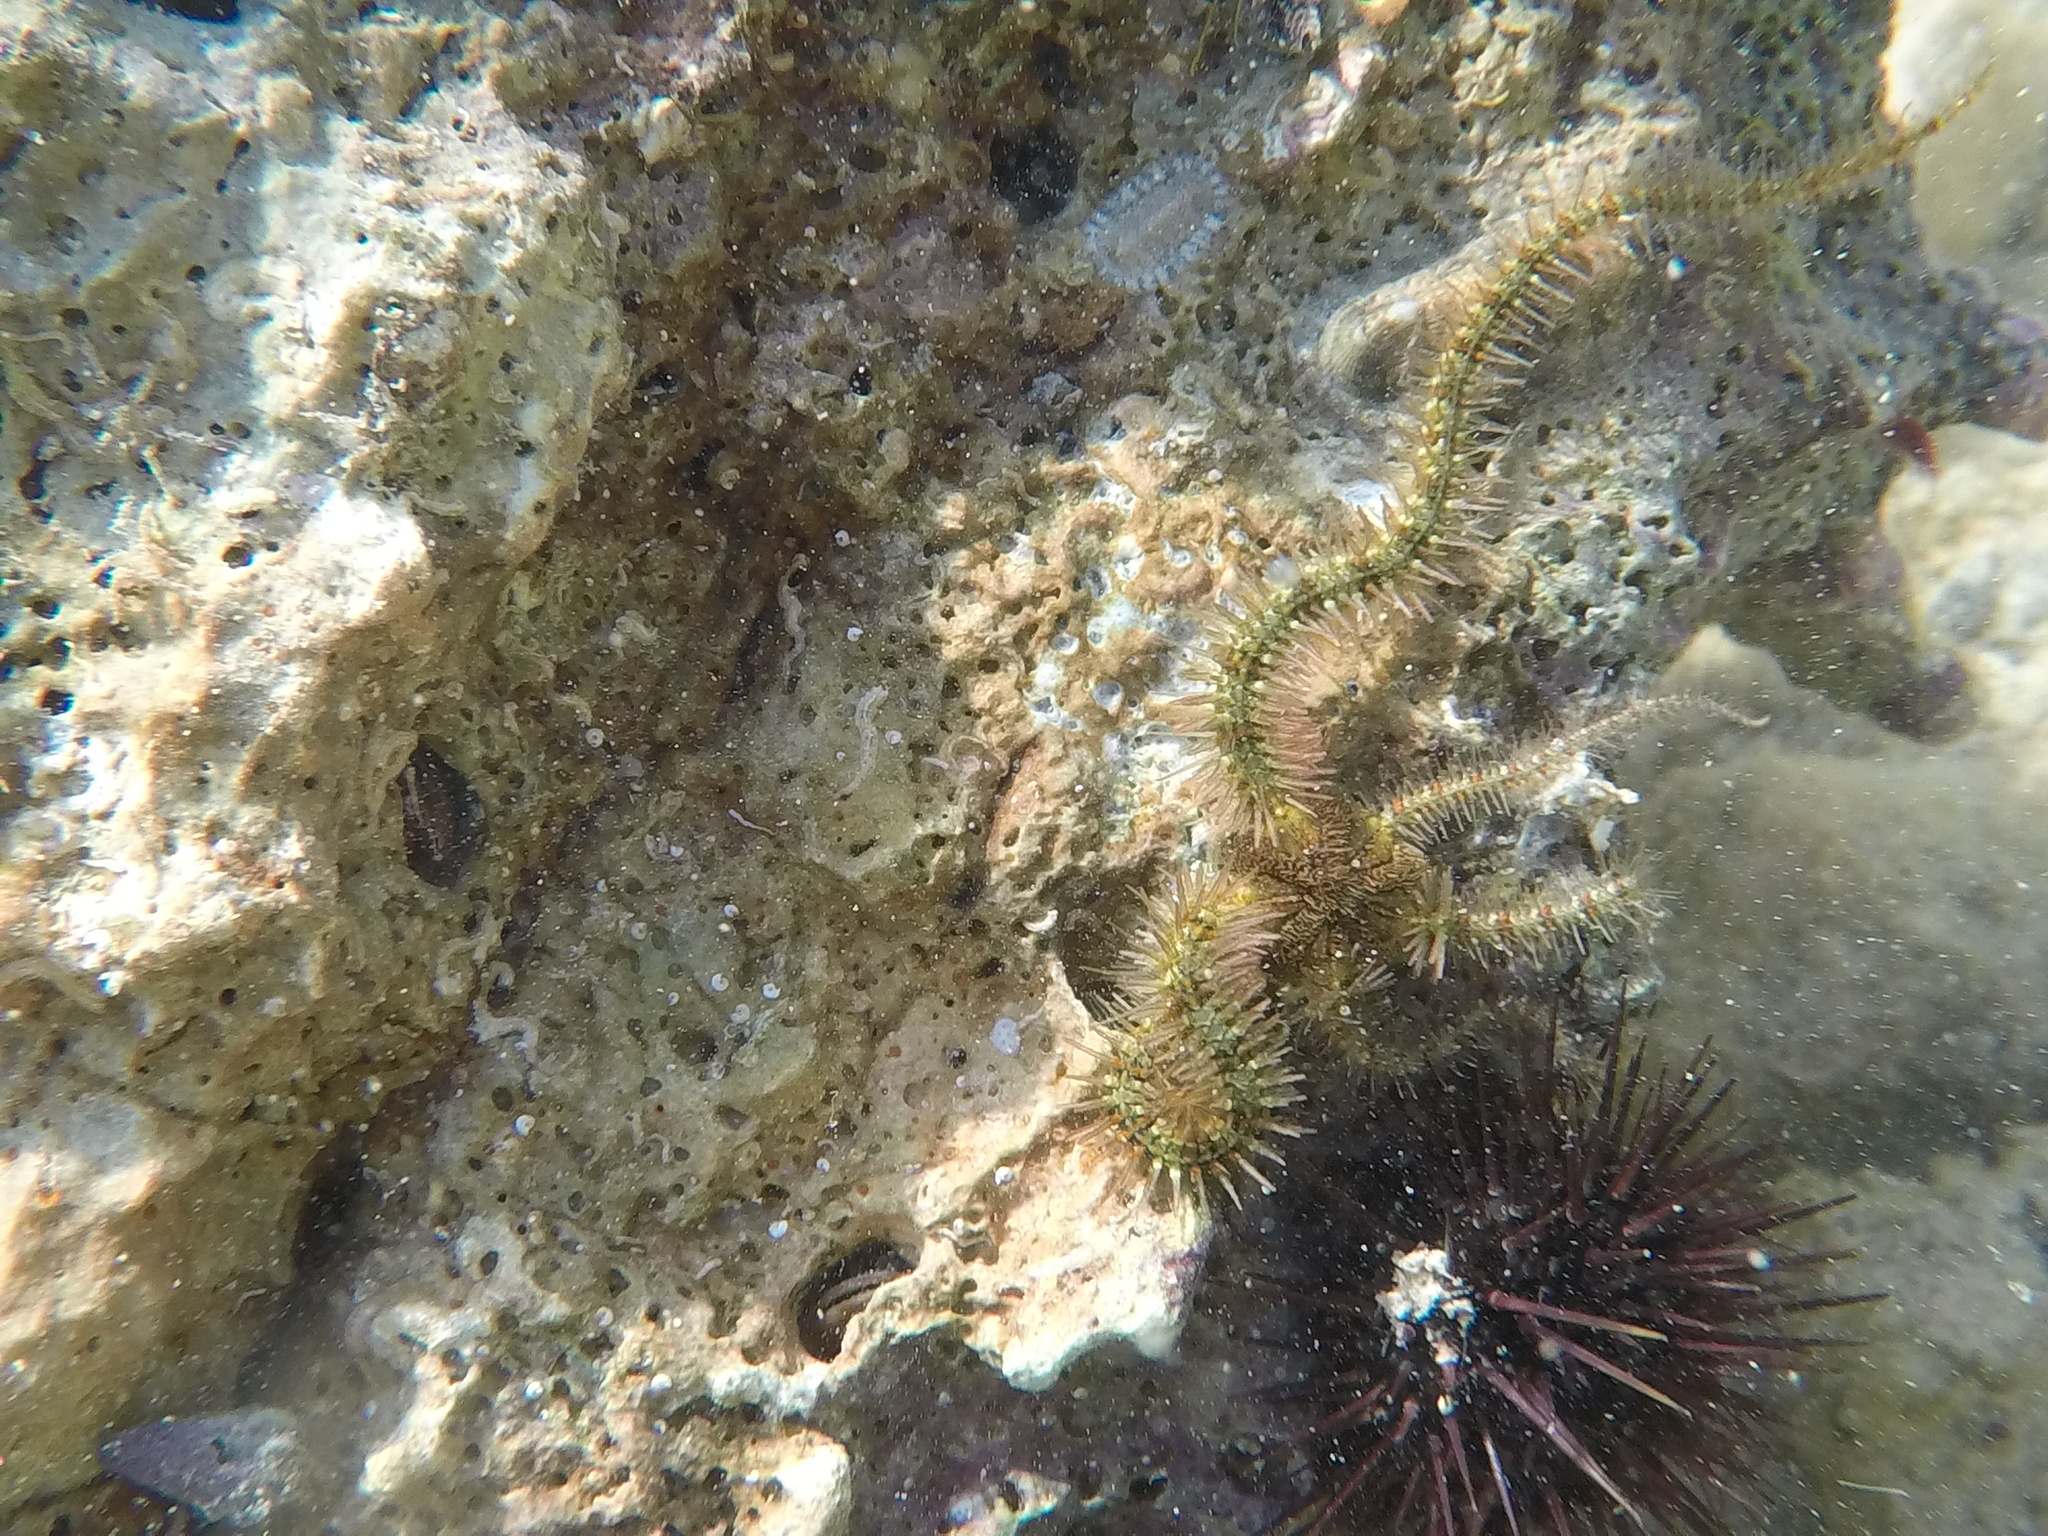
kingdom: Animalia
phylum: Echinodermata
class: Ophiuroidea
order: Amphilepidida
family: Ophiotrichidae
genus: Ophiothrix
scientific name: Ophiothrix fragilis
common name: Common brittlestar
